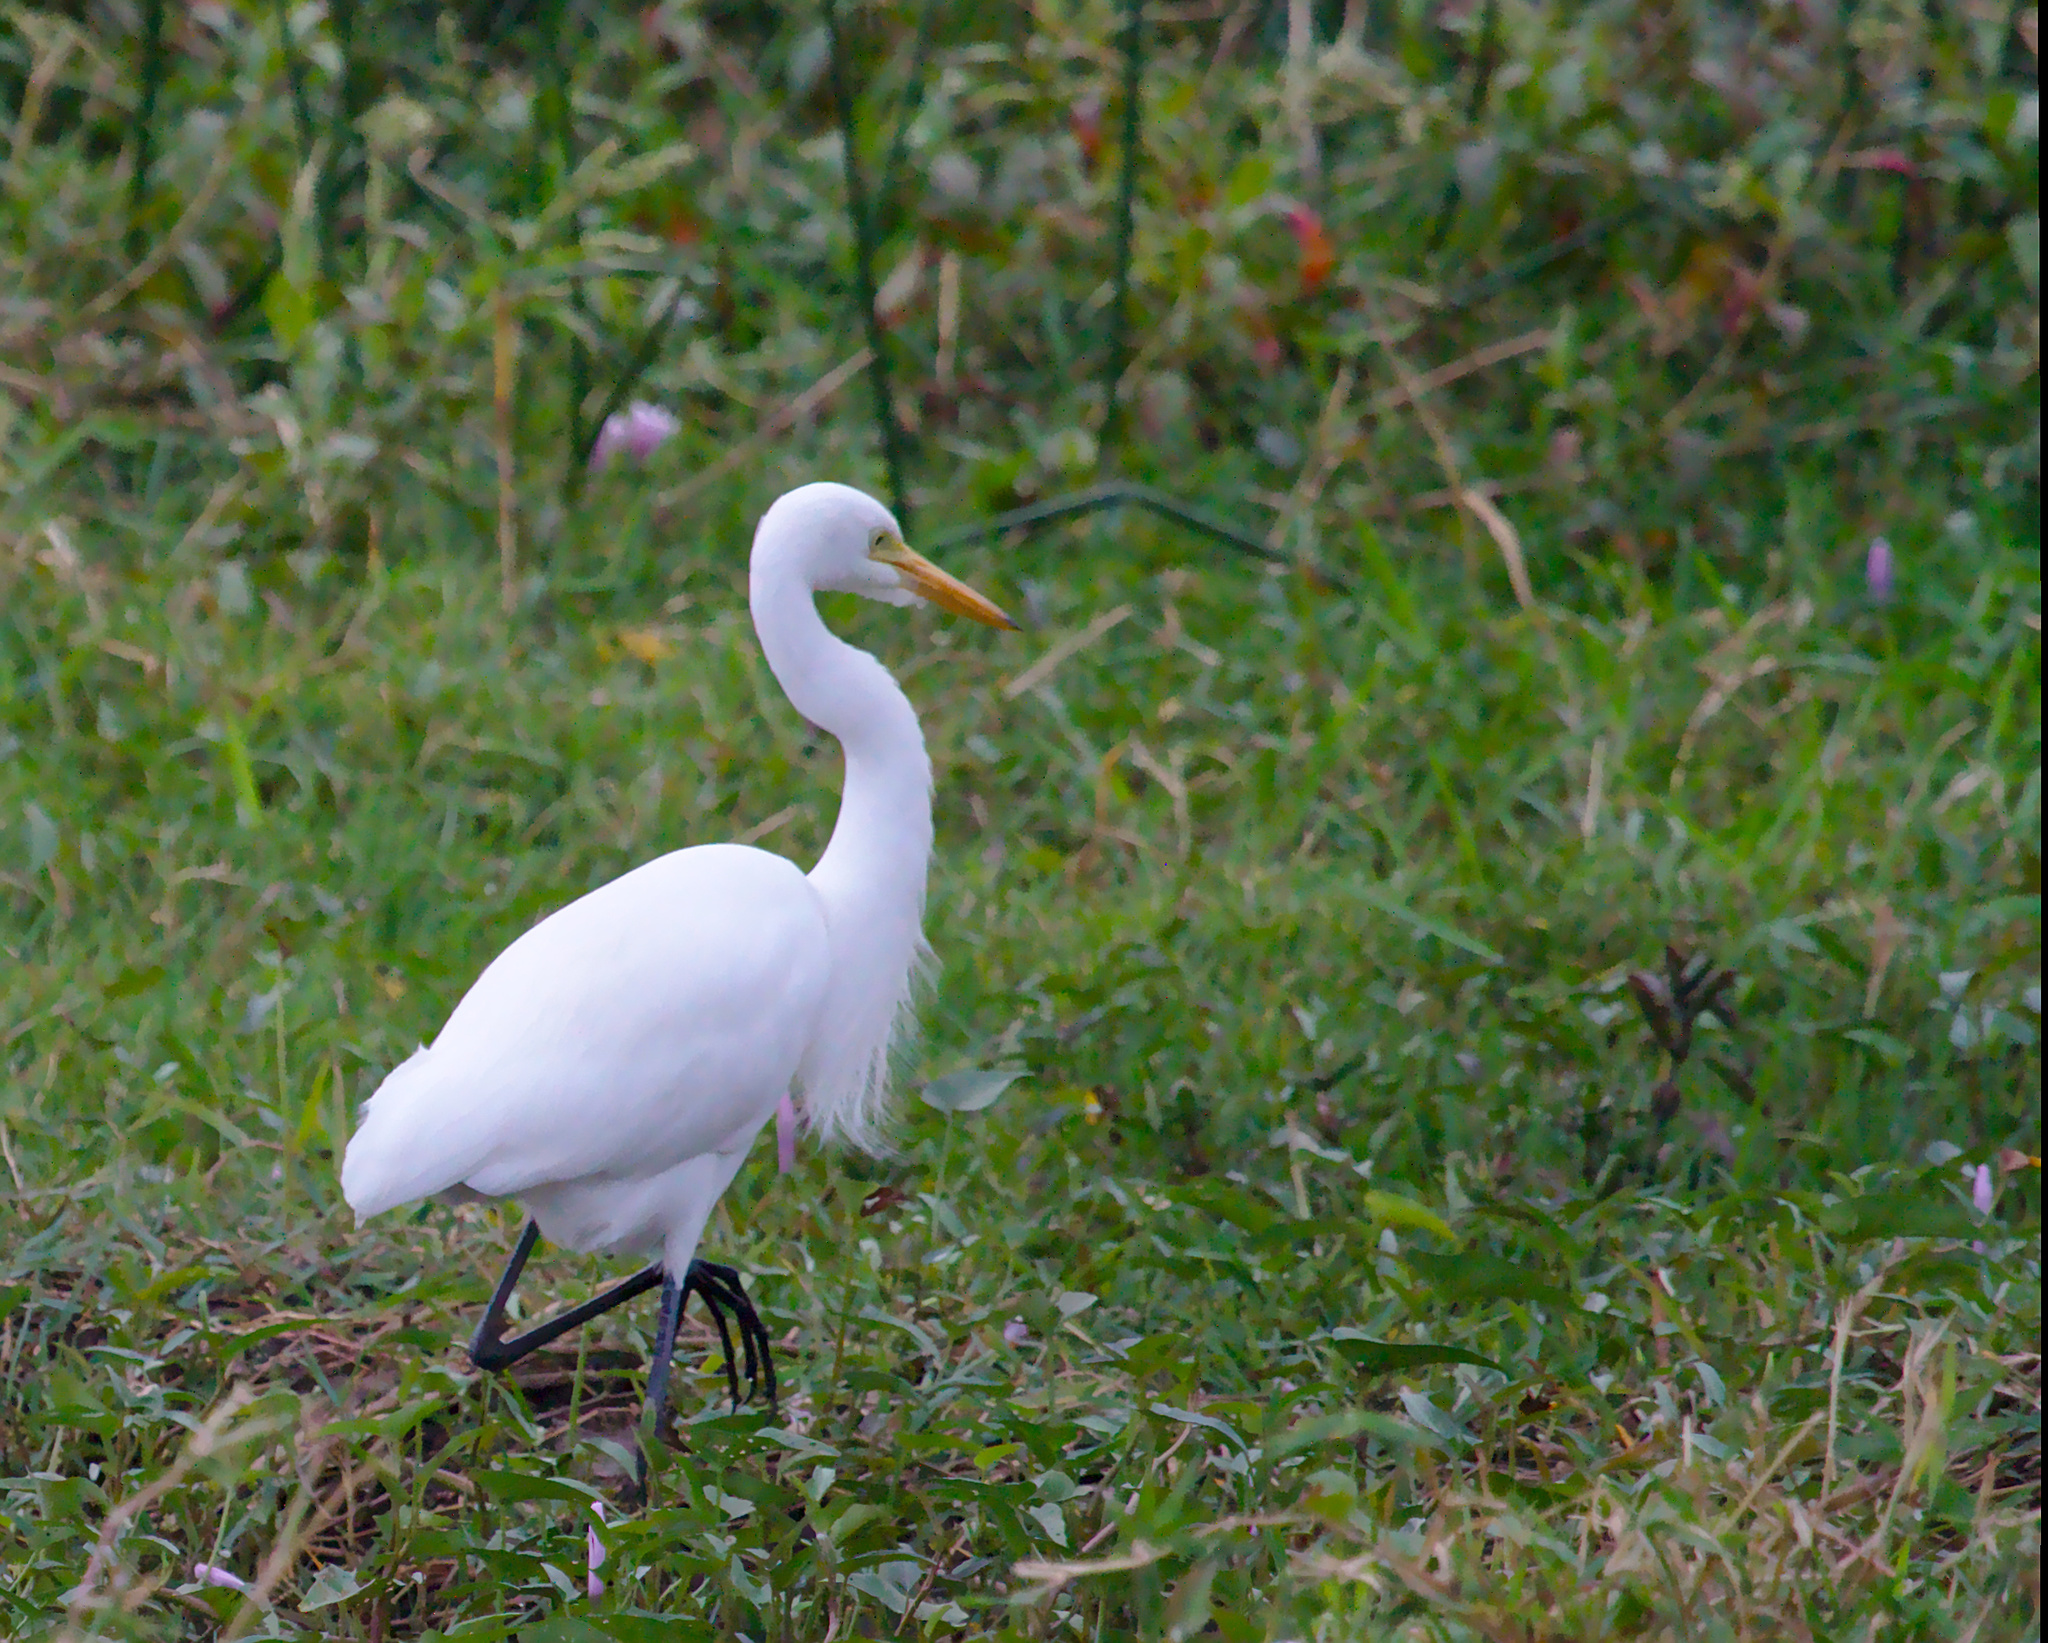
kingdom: Animalia
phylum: Chordata
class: Aves
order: Pelecaniformes
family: Ardeidae
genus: Egretta
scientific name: Egretta intermedia
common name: Intermediate egret
